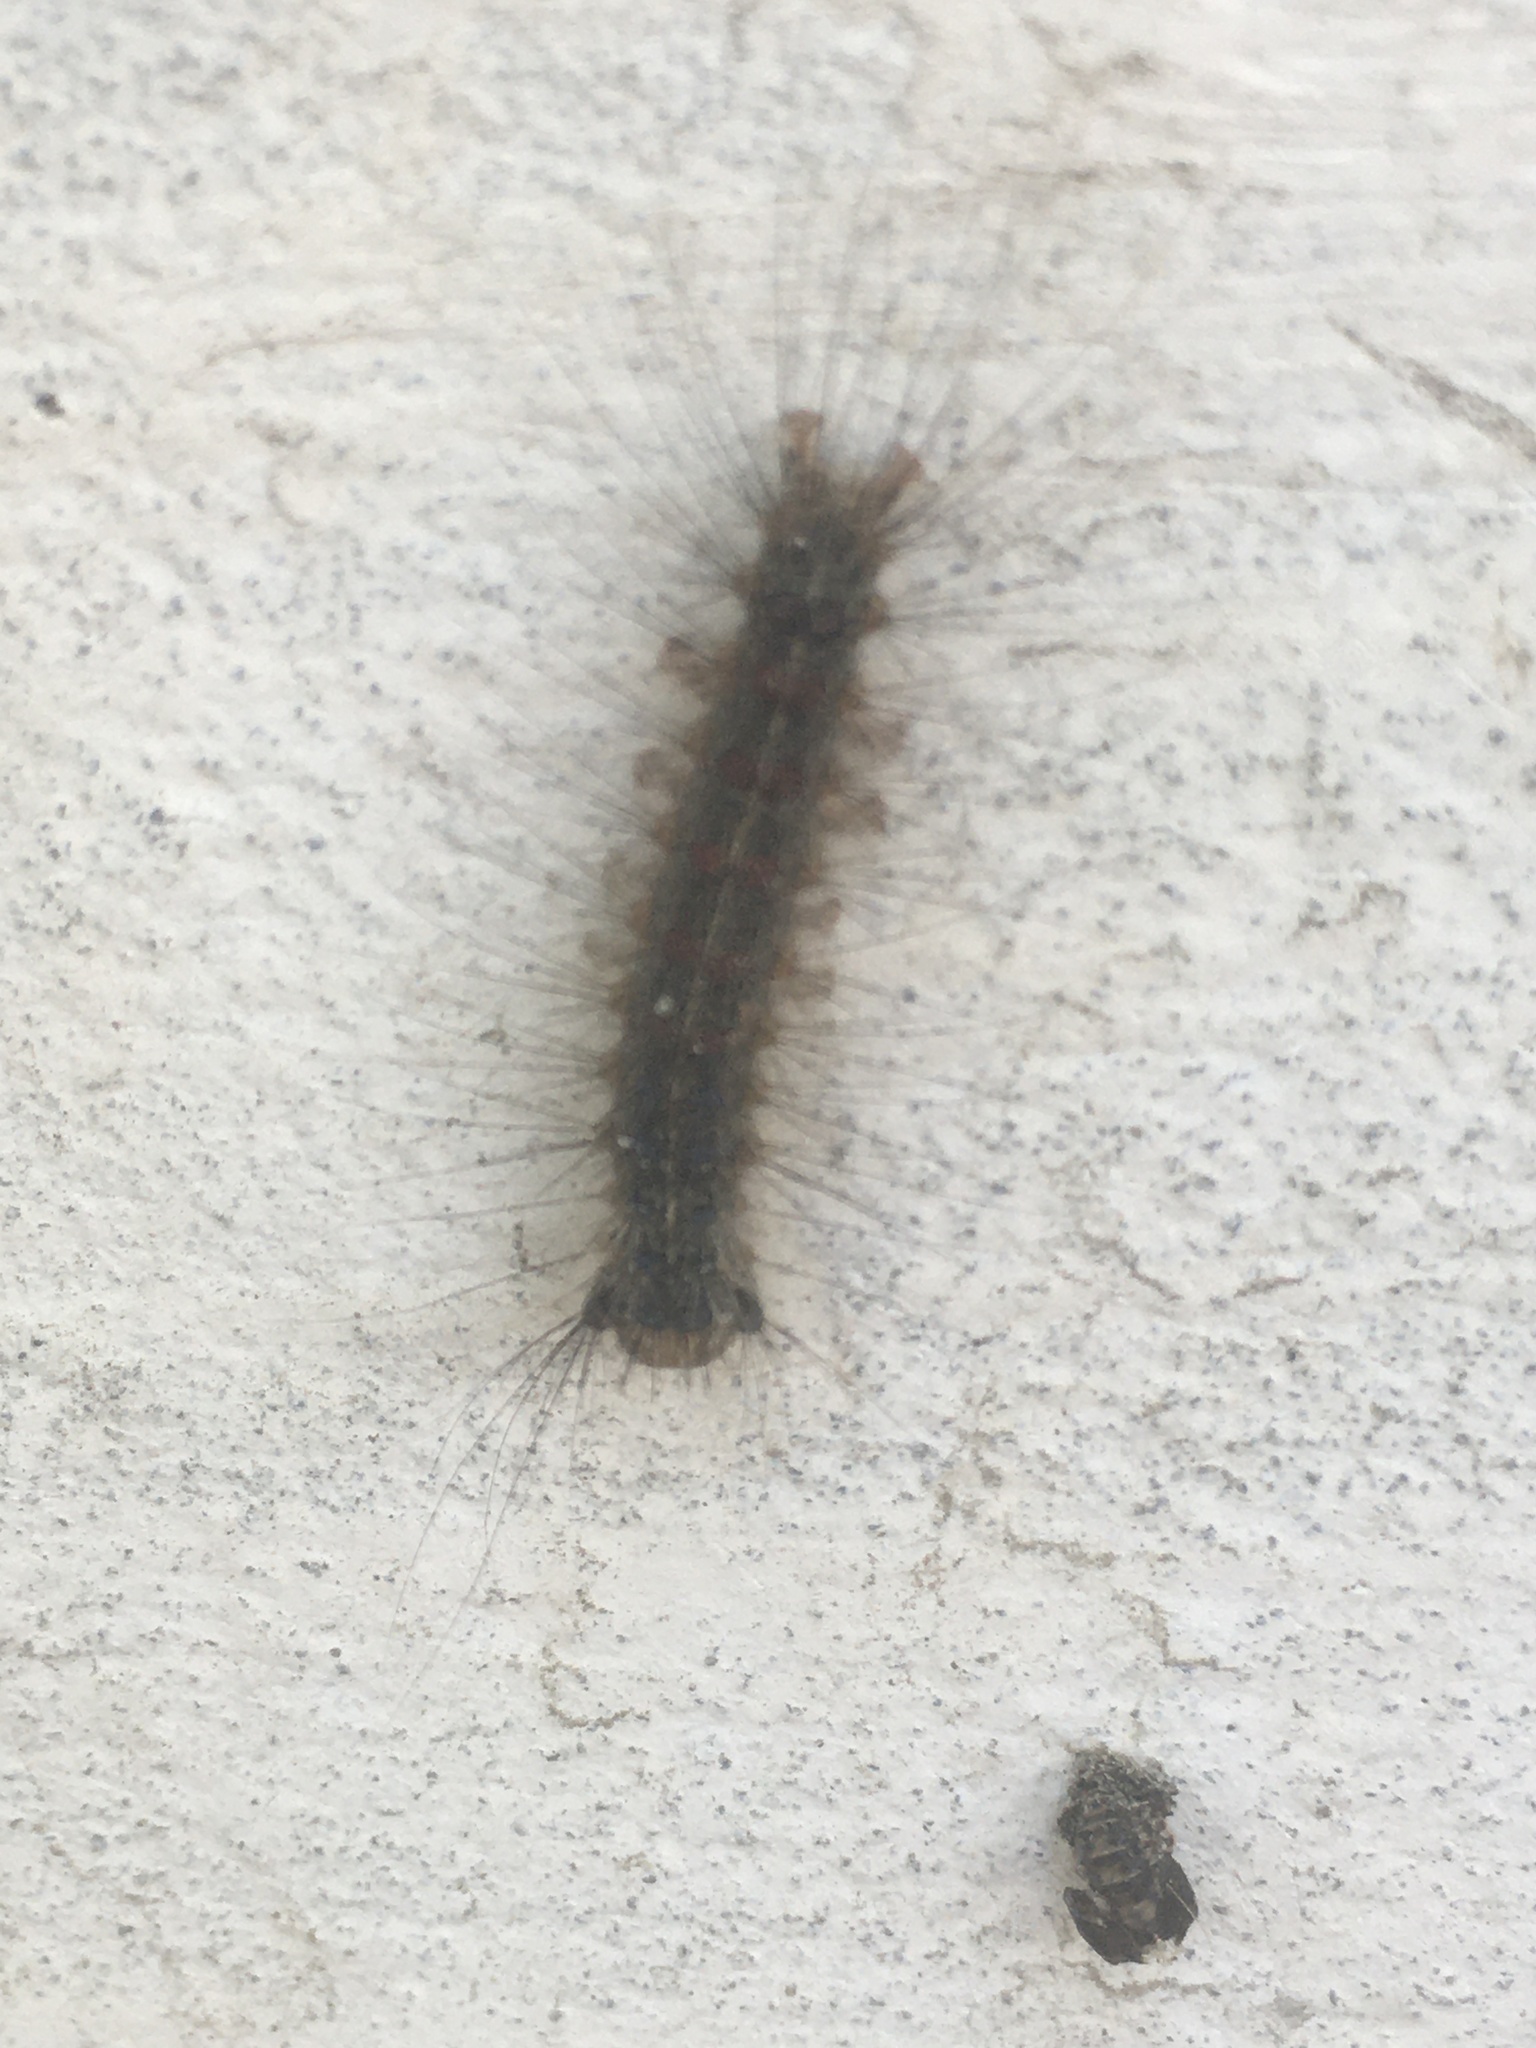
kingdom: Animalia
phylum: Arthropoda
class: Insecta
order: Lepidoptera
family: Erebidae
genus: Lymantria
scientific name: Lymantria dispar
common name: Gypsy moth
